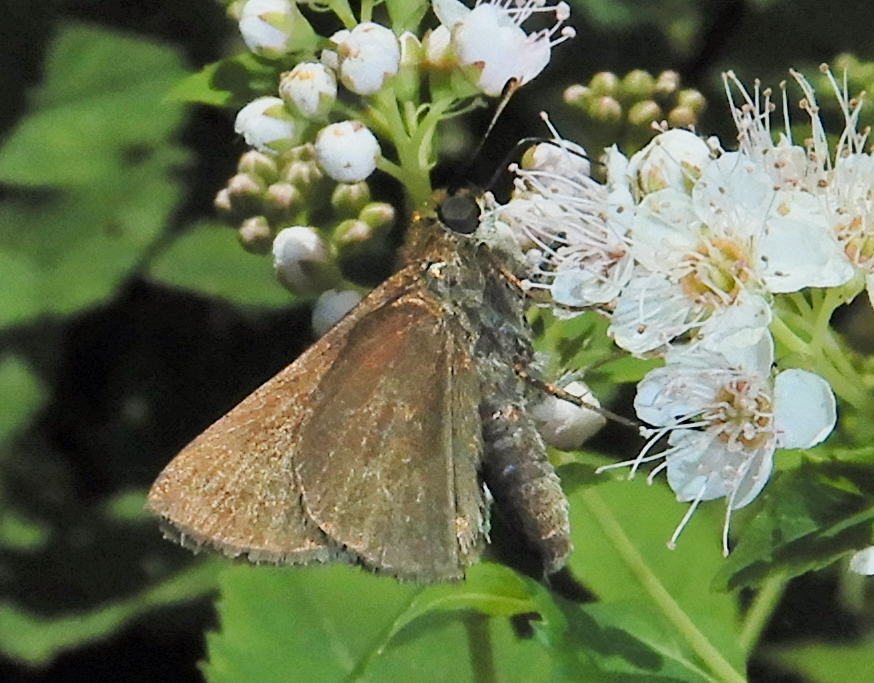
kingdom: Animalia
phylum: Arthropoda
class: Insecta
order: Lepidoptera
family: Hesperiidae
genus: Euphyes
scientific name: Euphyes vestris
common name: Dun skipper
